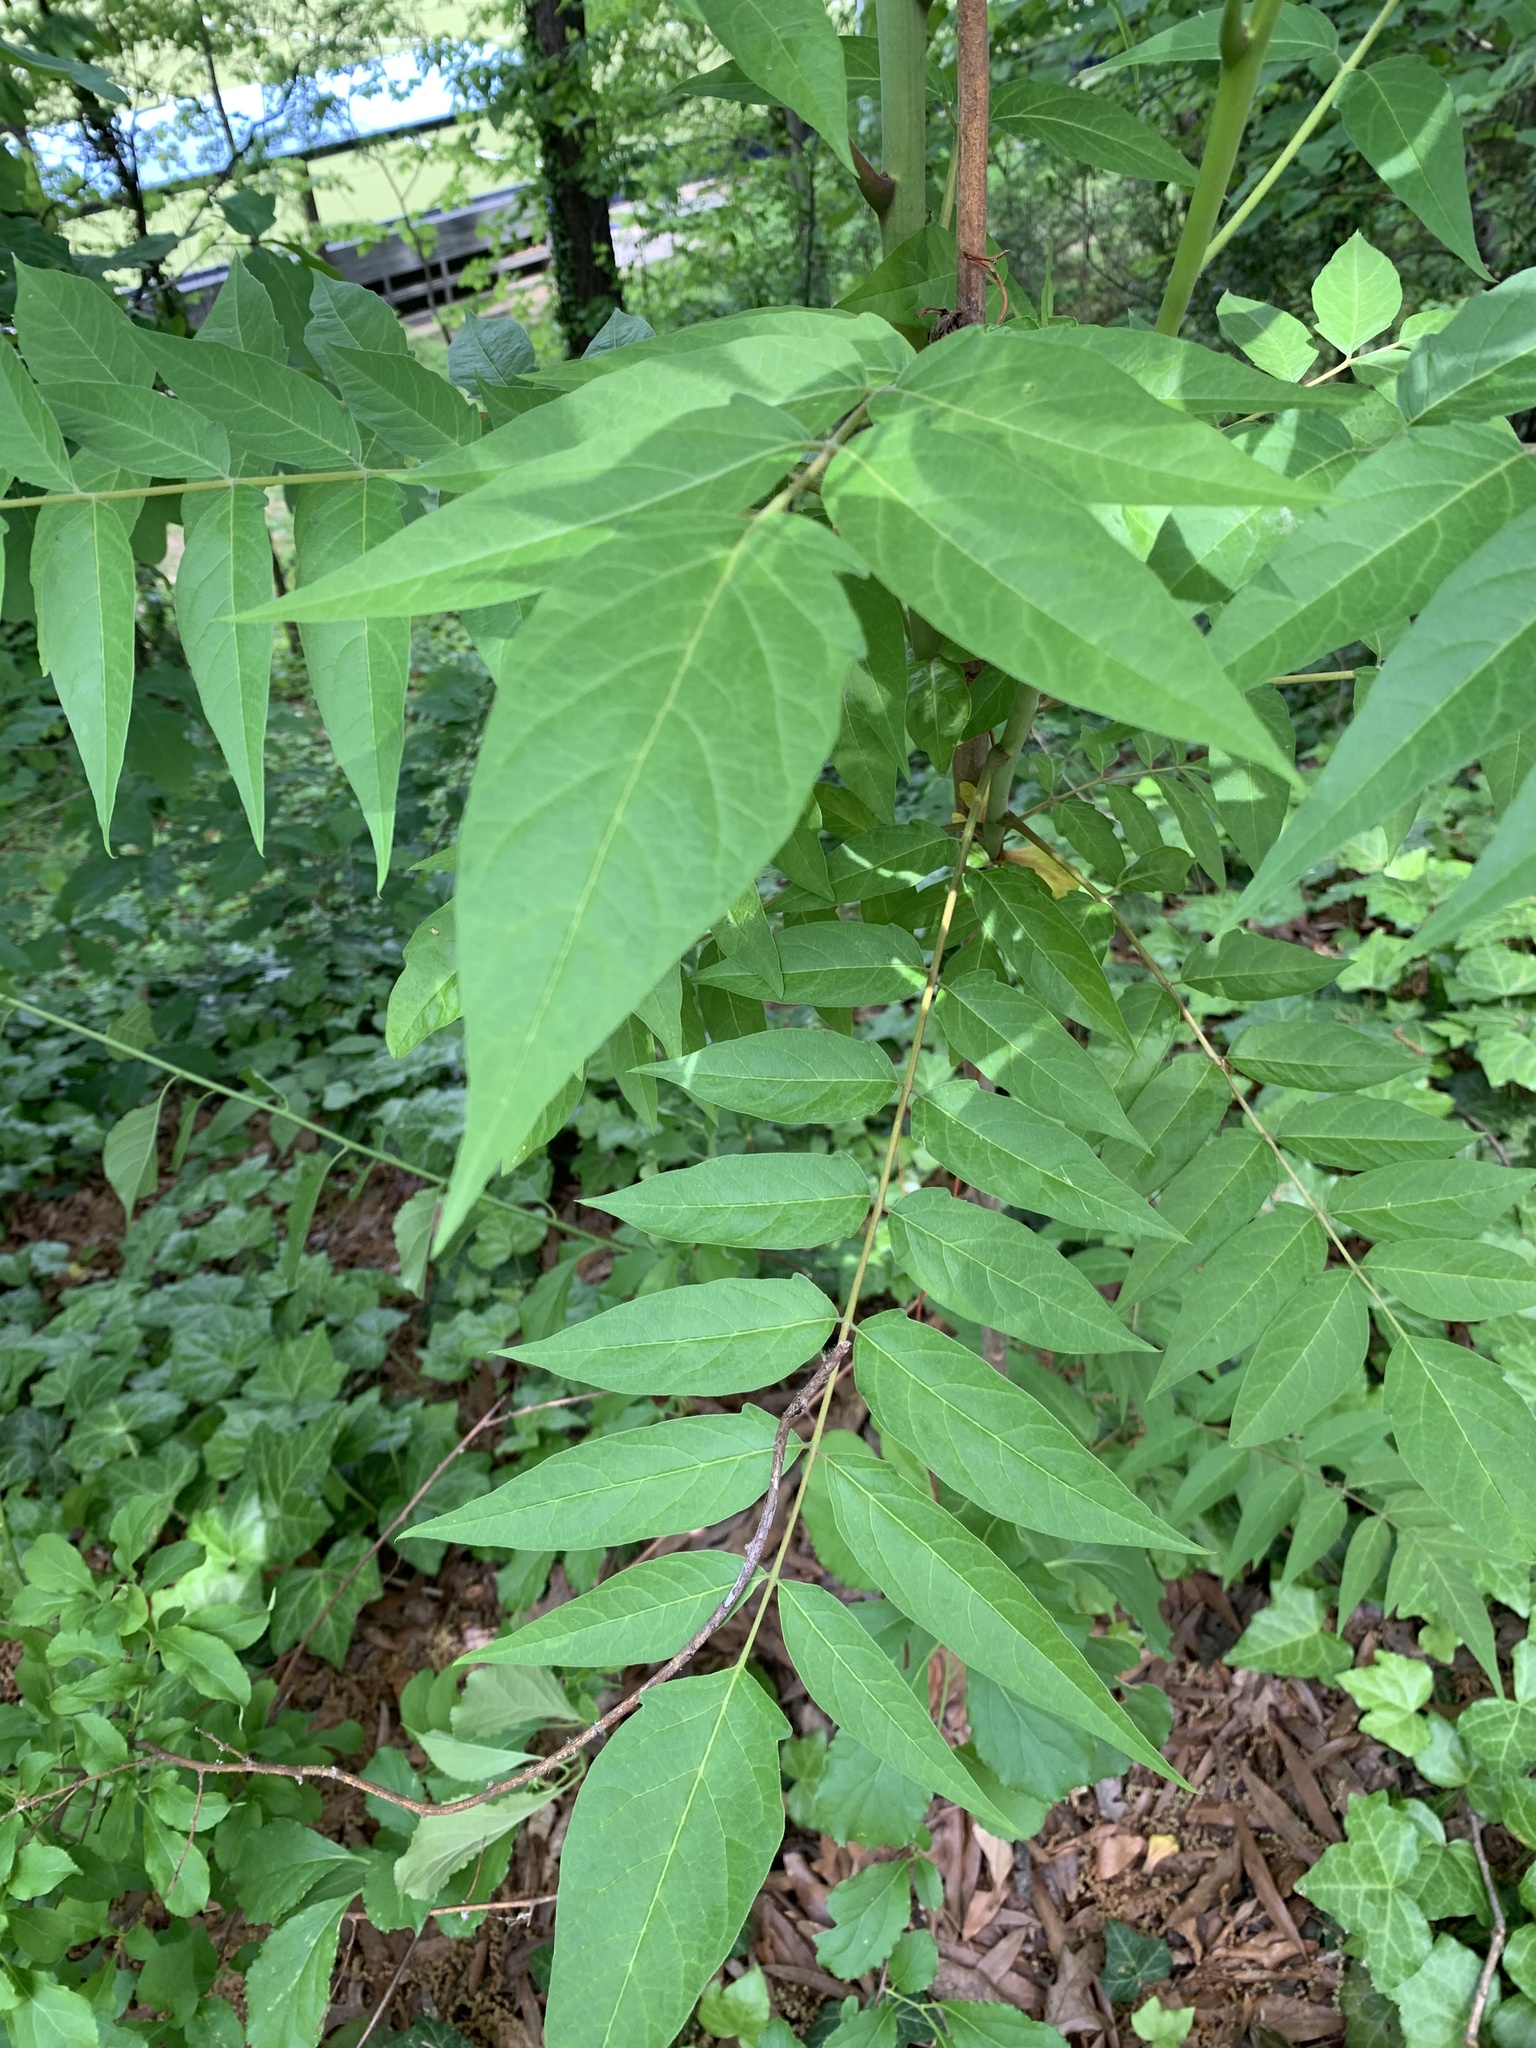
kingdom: Plantae
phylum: Tracheophyta
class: Magnoliopsida
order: Sapindales
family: Simaroubaceae
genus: Ailanthus
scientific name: Ailanthus altissima
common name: Tree-of-heaven
